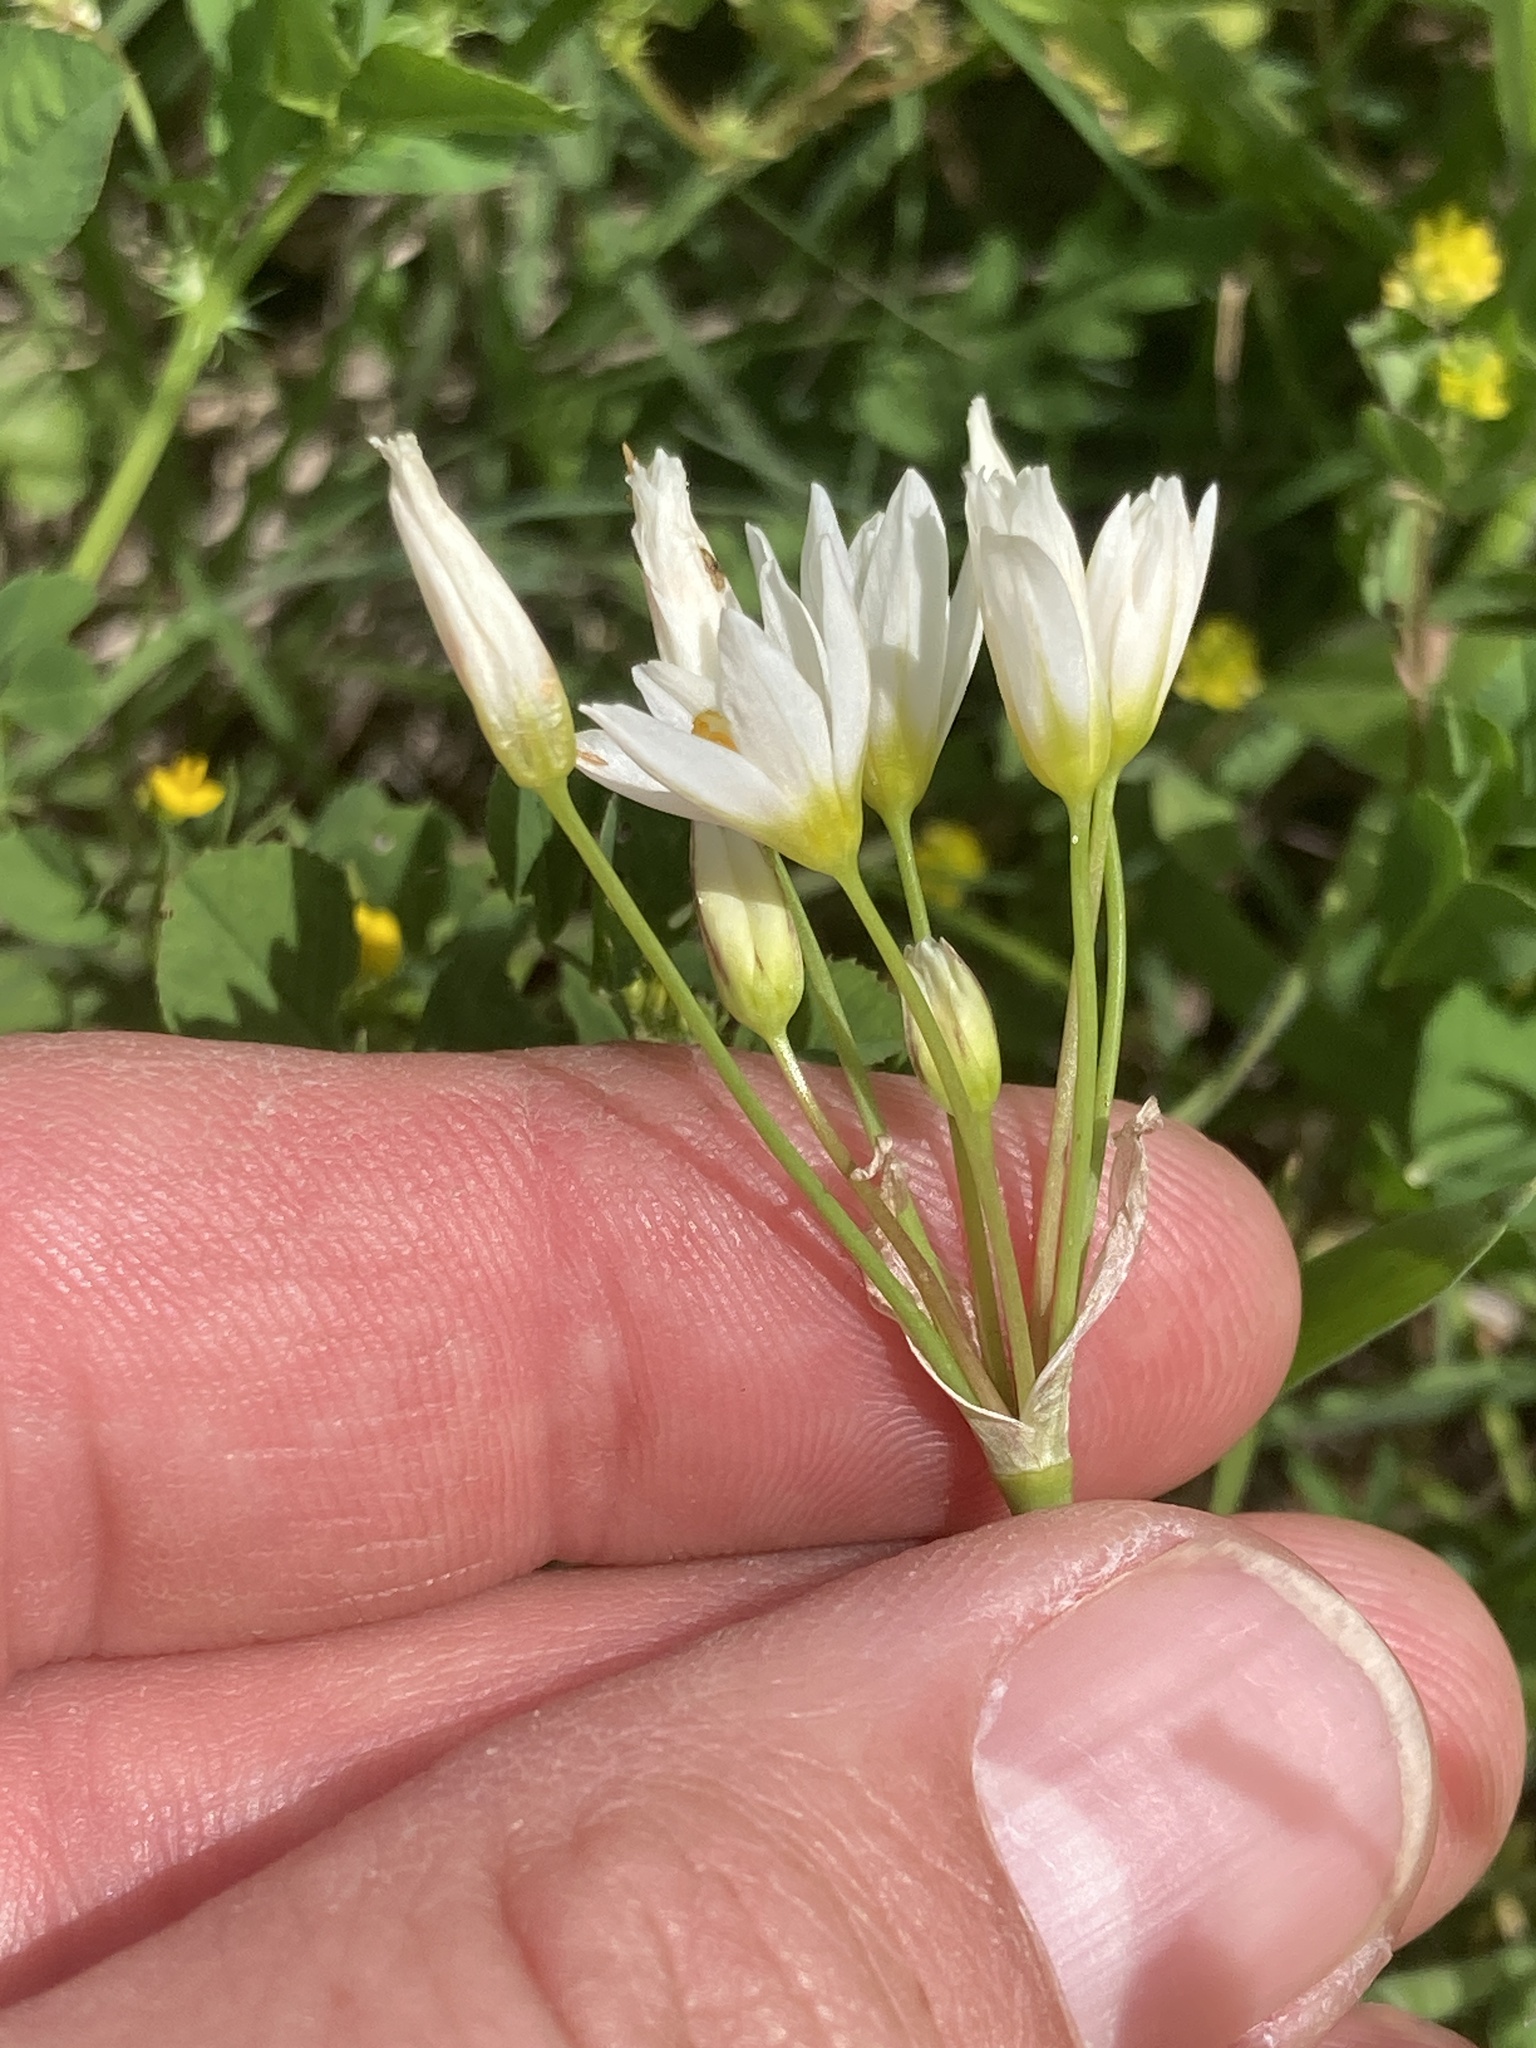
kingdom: Plantae
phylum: Tracheophyta
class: Liliopsida
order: Asparagales
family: Amaryllidaceae
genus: Nothoscordum
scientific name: Nothoscordum bivalve
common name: Crow-poison
